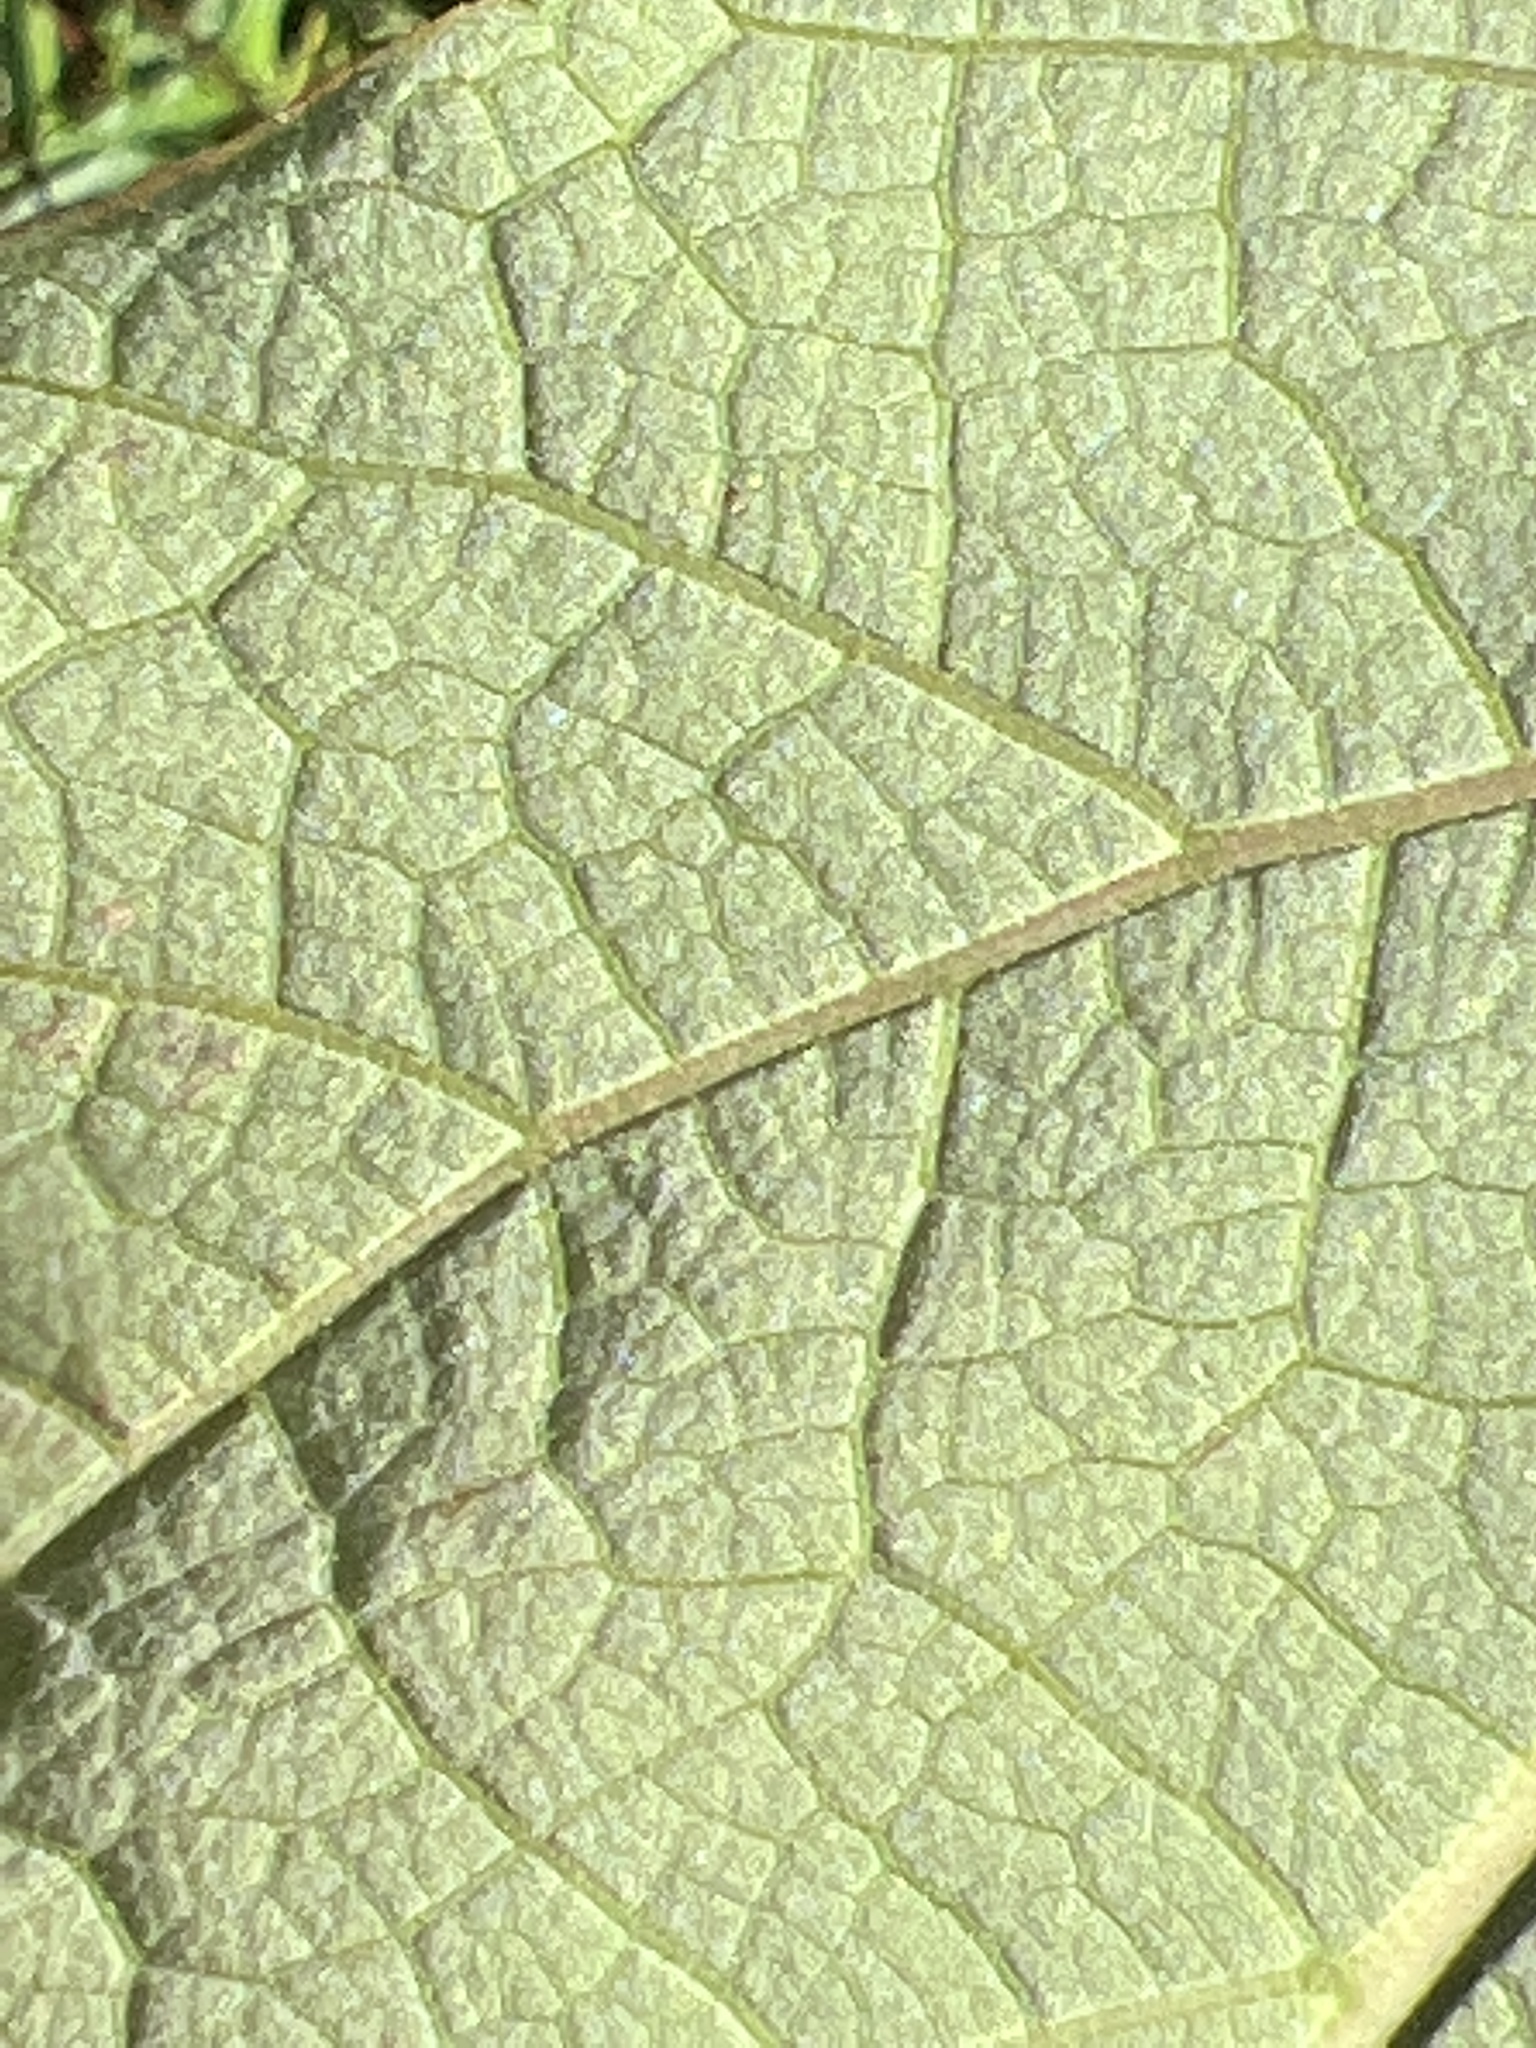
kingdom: Plantae
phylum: Tracheophyta
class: Magnoliopsida
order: Malvales
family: Malvaceae
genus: Hibiscus
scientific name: Hibiscus moscheutos
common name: Common rose-mallow
